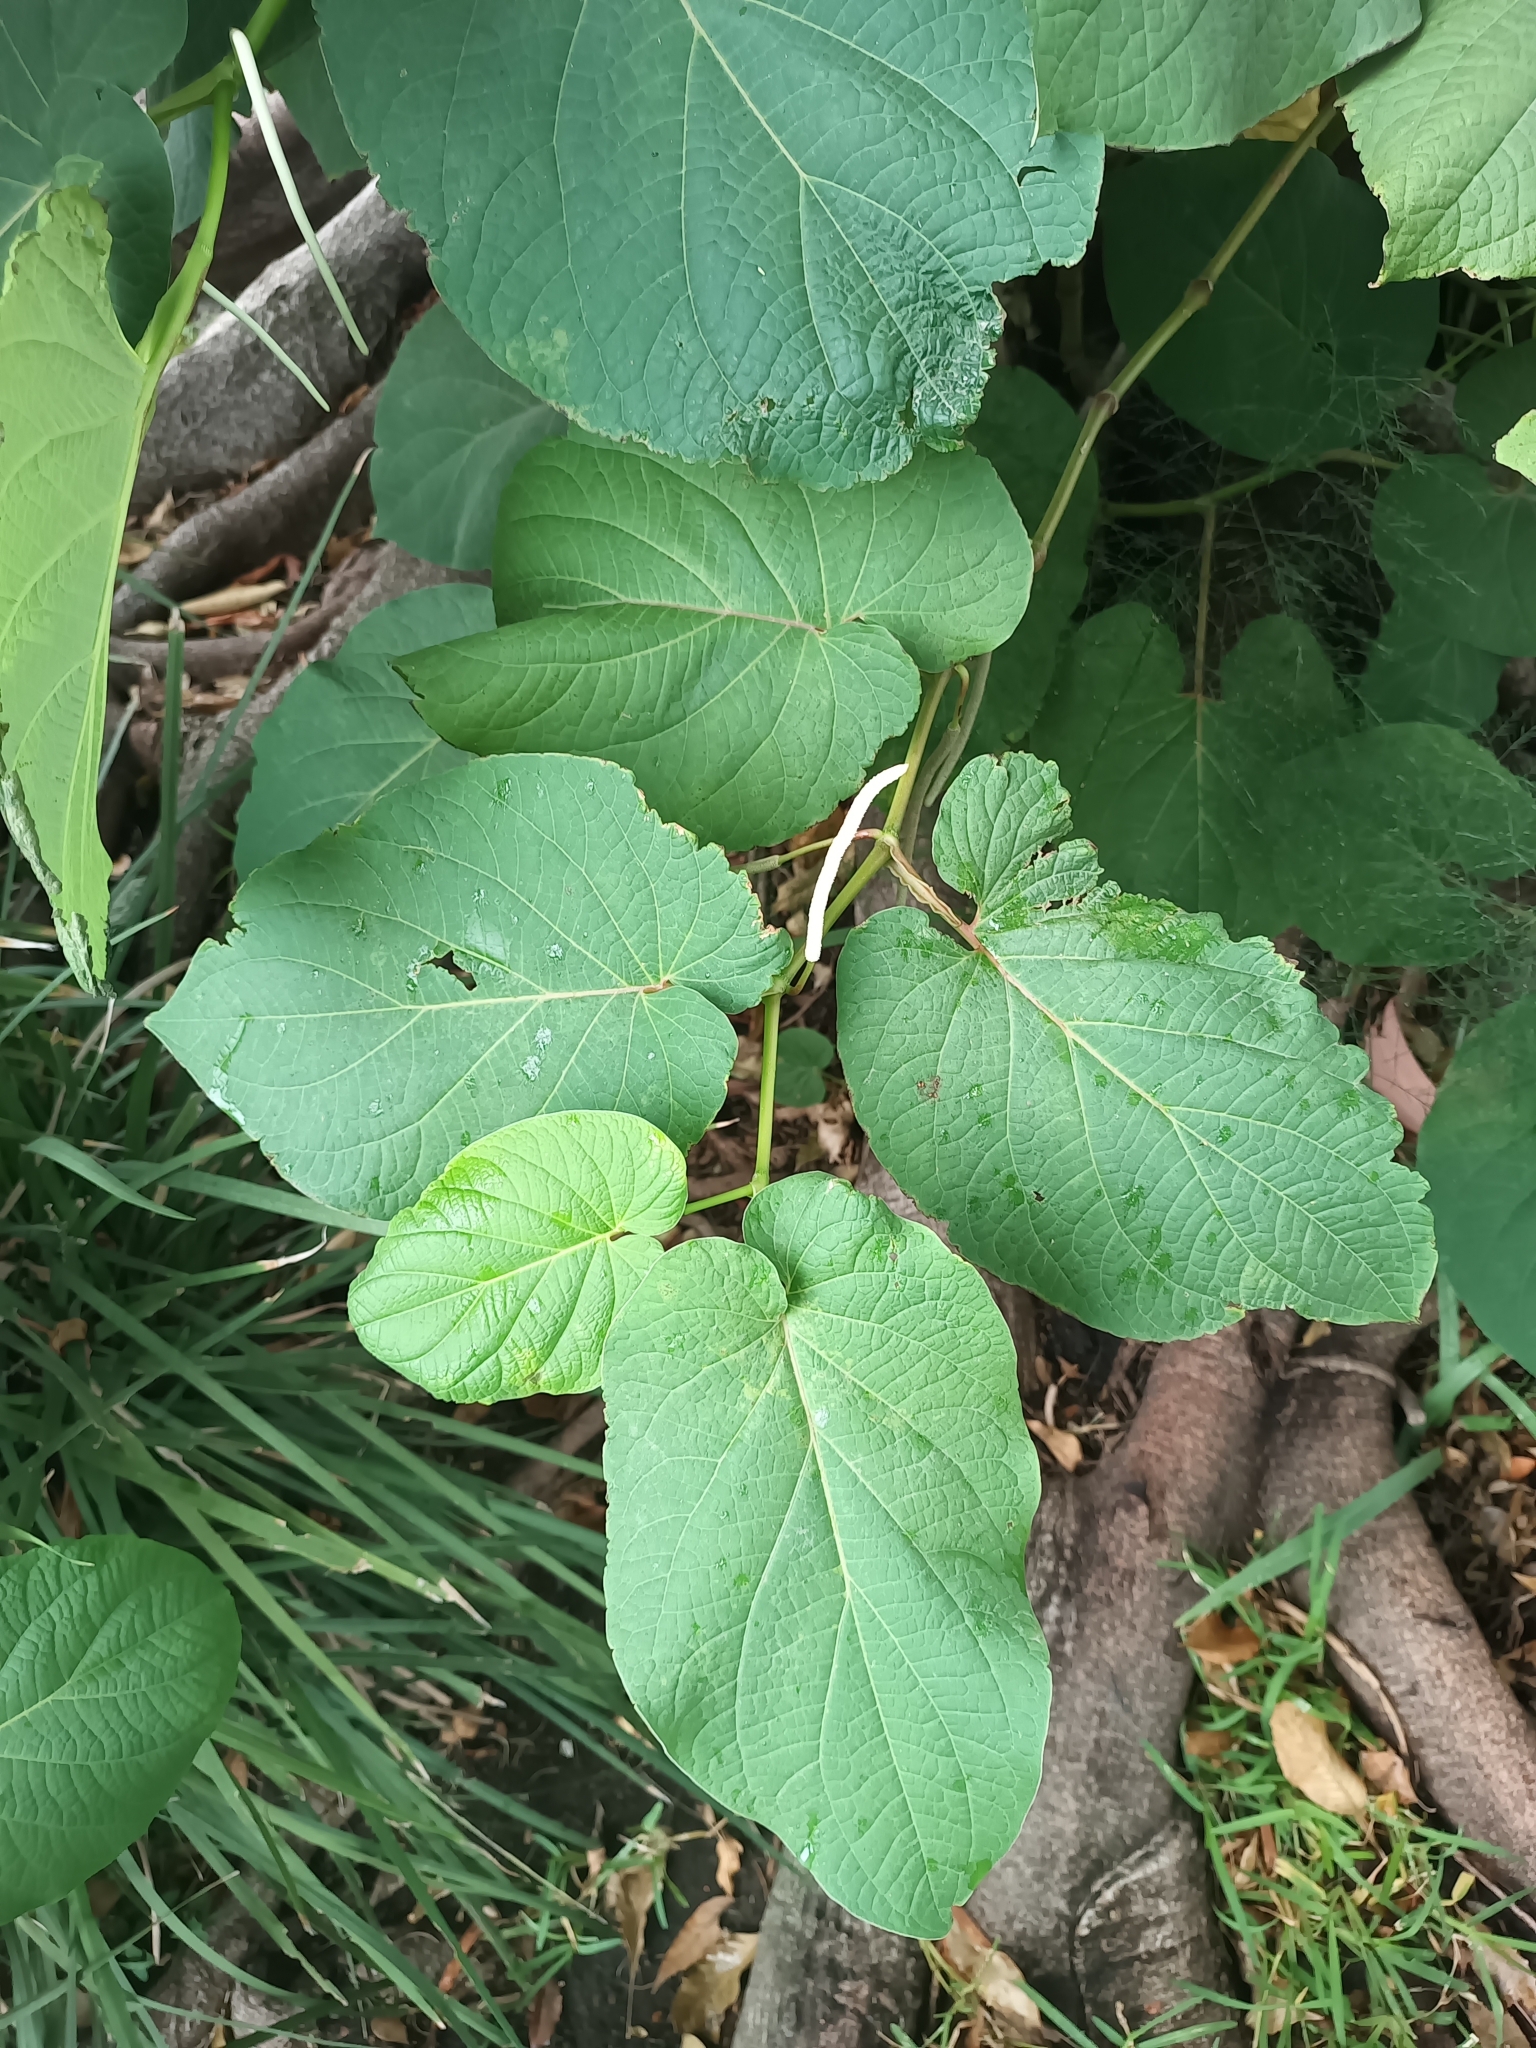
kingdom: Plantae
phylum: Tracheophyta
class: Magnoliopsida
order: Piperales
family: Piperaceae
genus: Piper
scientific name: Piper auritum
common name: Vera cruz pepper
